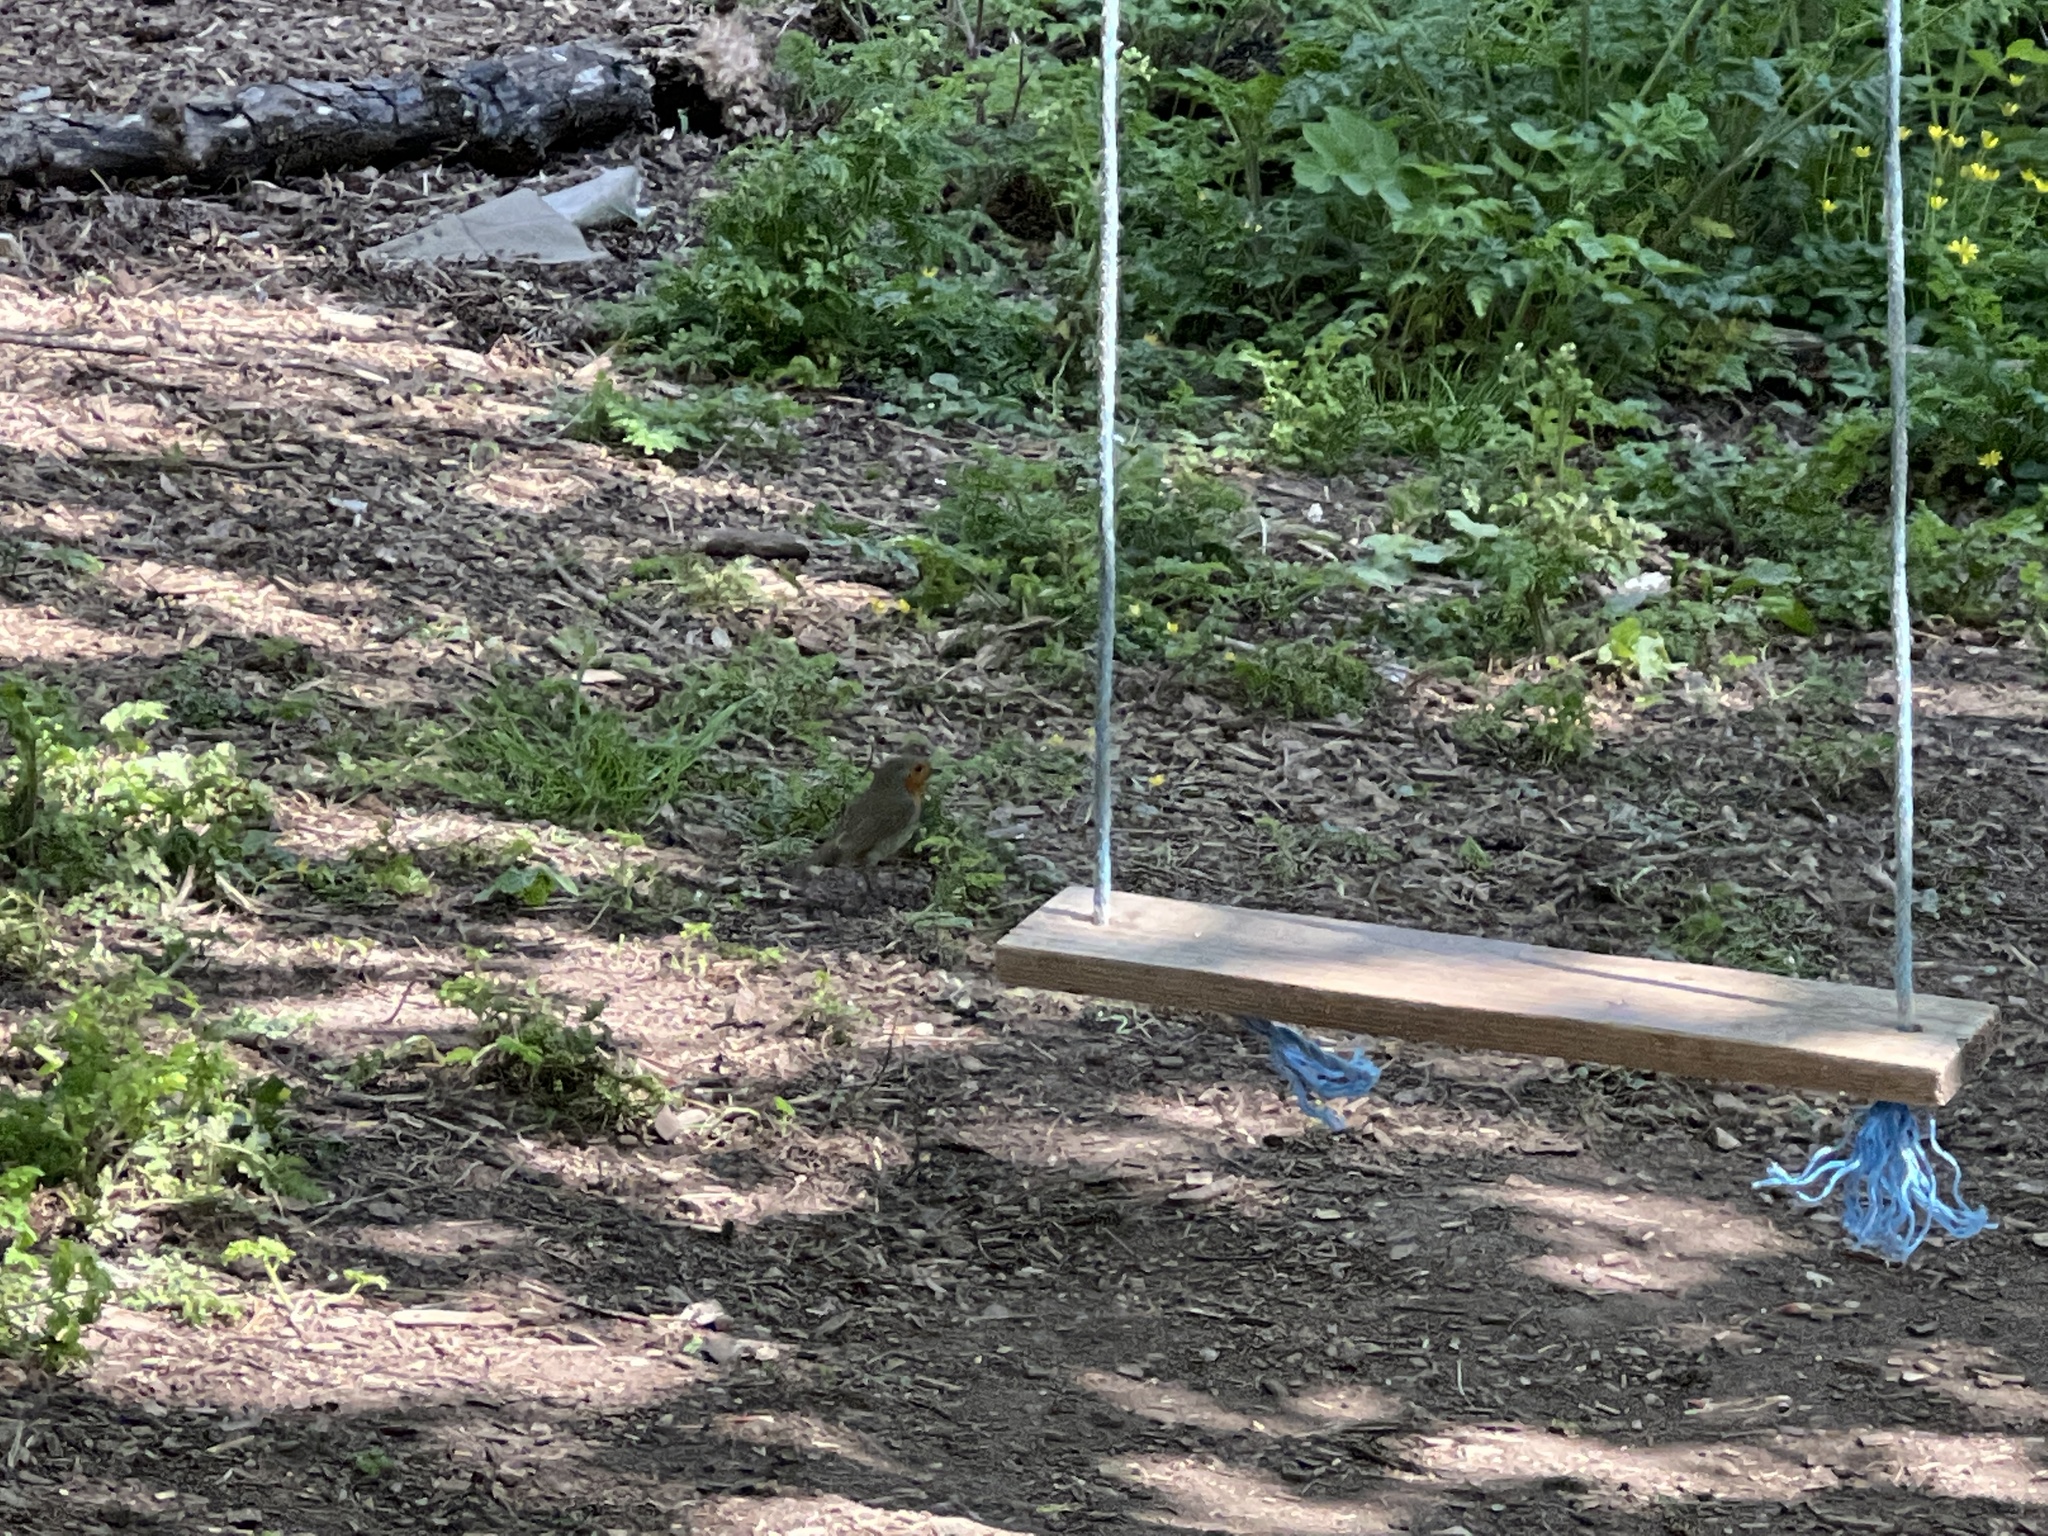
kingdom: Animalia
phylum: Chordata
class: Aves
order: Passeriformes
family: Muscicapidae
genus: Erithacus
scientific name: Erithacus rubecula
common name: European robin
